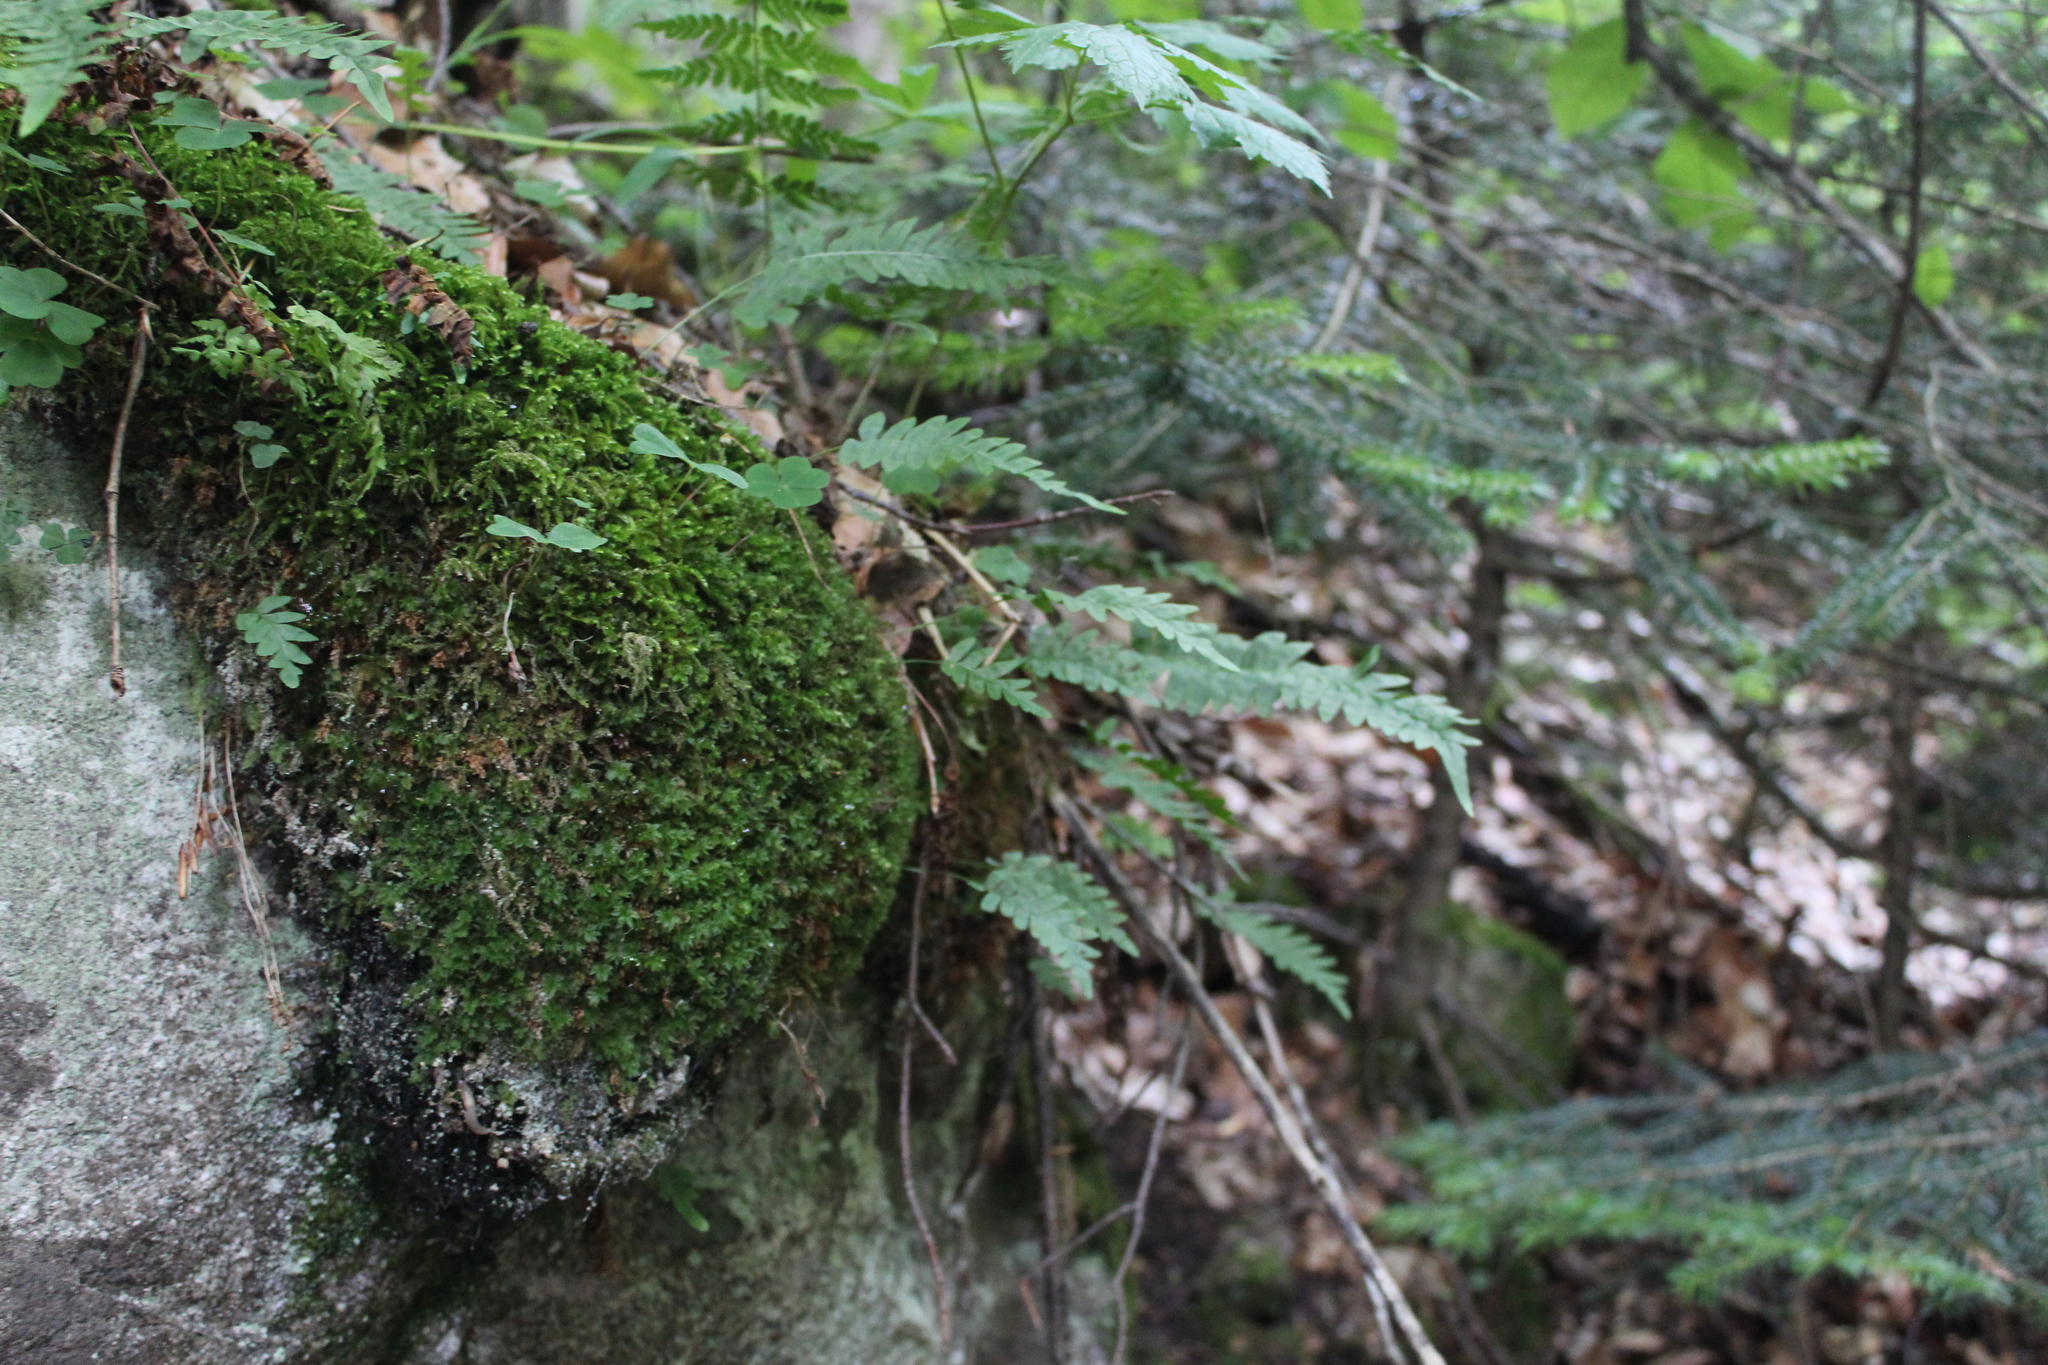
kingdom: Plantae
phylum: Tracheophyta
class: Polypodiopsida
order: Polypodiales
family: Polypodiaceae
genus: Polypodium
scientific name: Polypodium vulgare
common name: Common polypody
